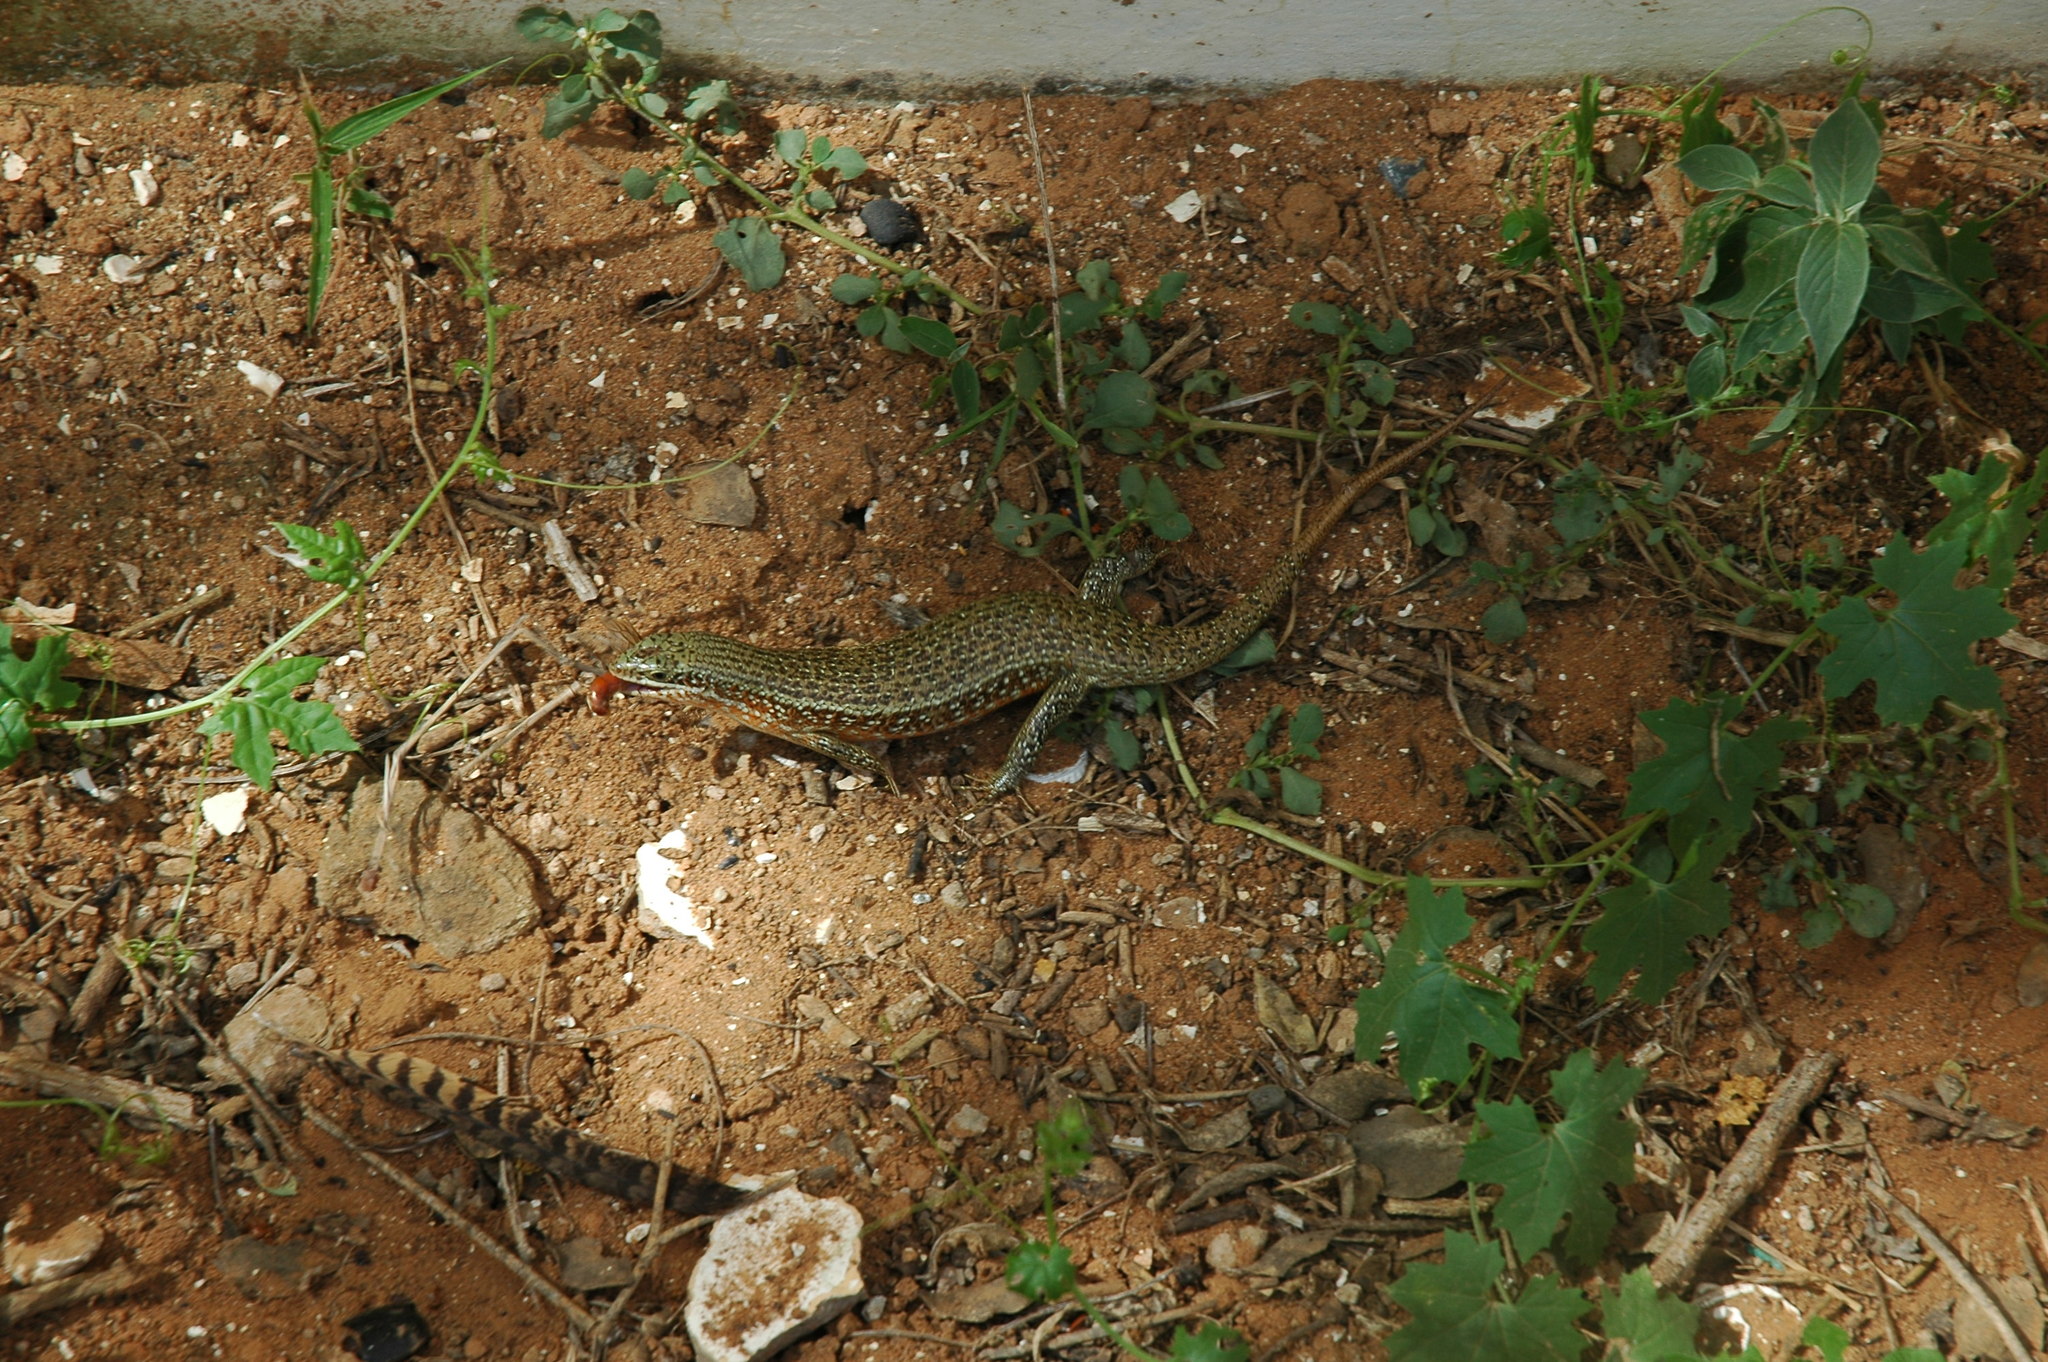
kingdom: Animalia
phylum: Chordata
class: Squamata
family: Scincidae
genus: Trachylepis
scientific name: Trachylepis perrotetii
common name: Teita mabuya
